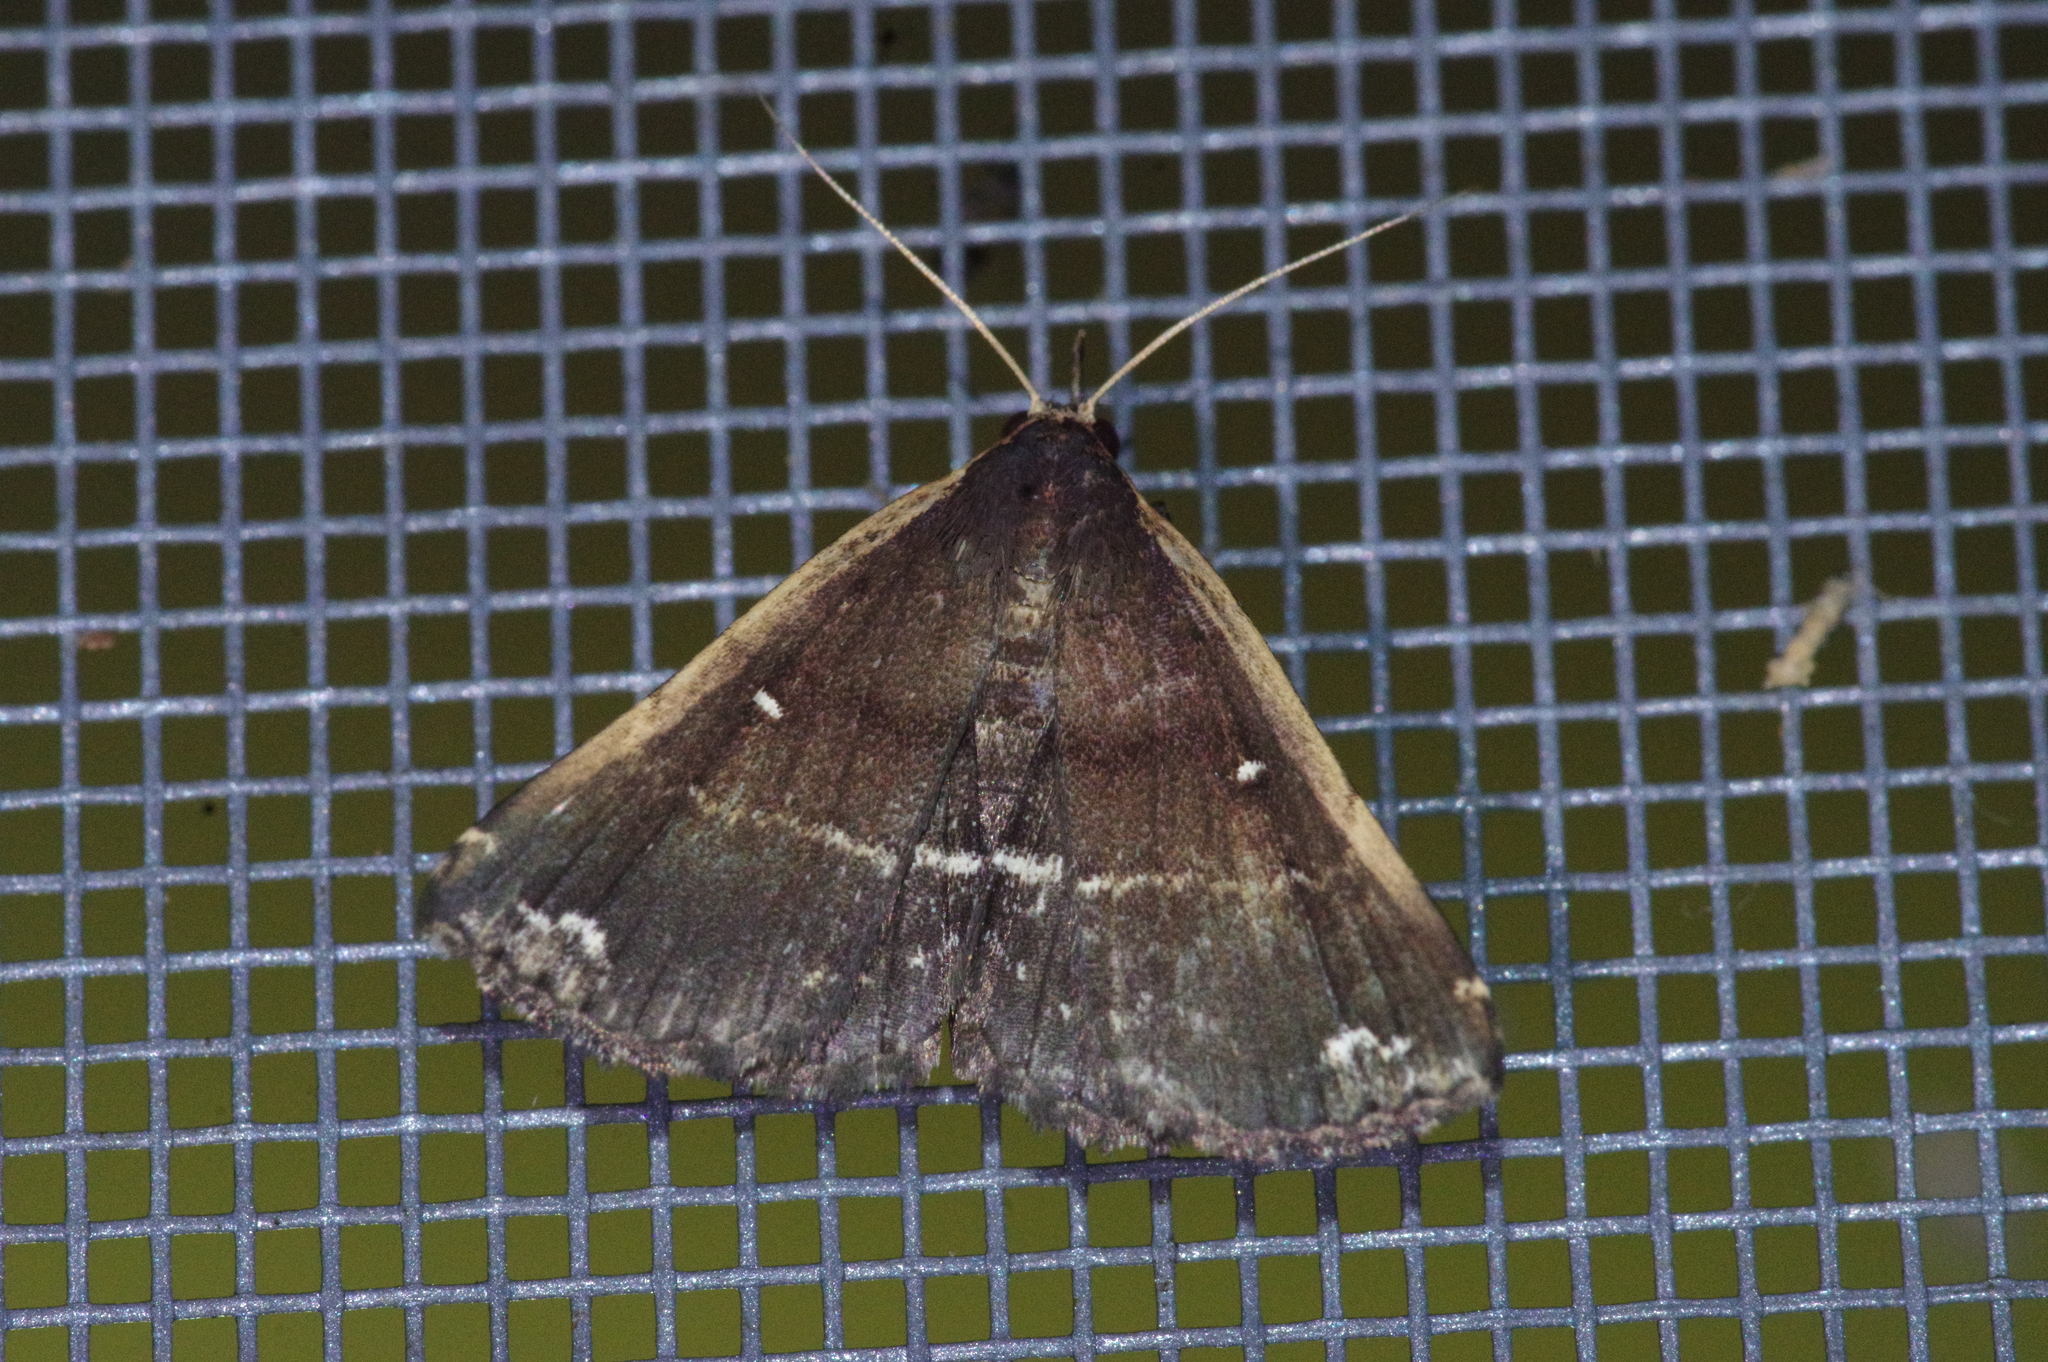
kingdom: Animalia
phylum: Arthropoda
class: Insecta
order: Lepidoptera
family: Erebidae
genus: Adrapsa
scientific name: Adrapsa ablualis
